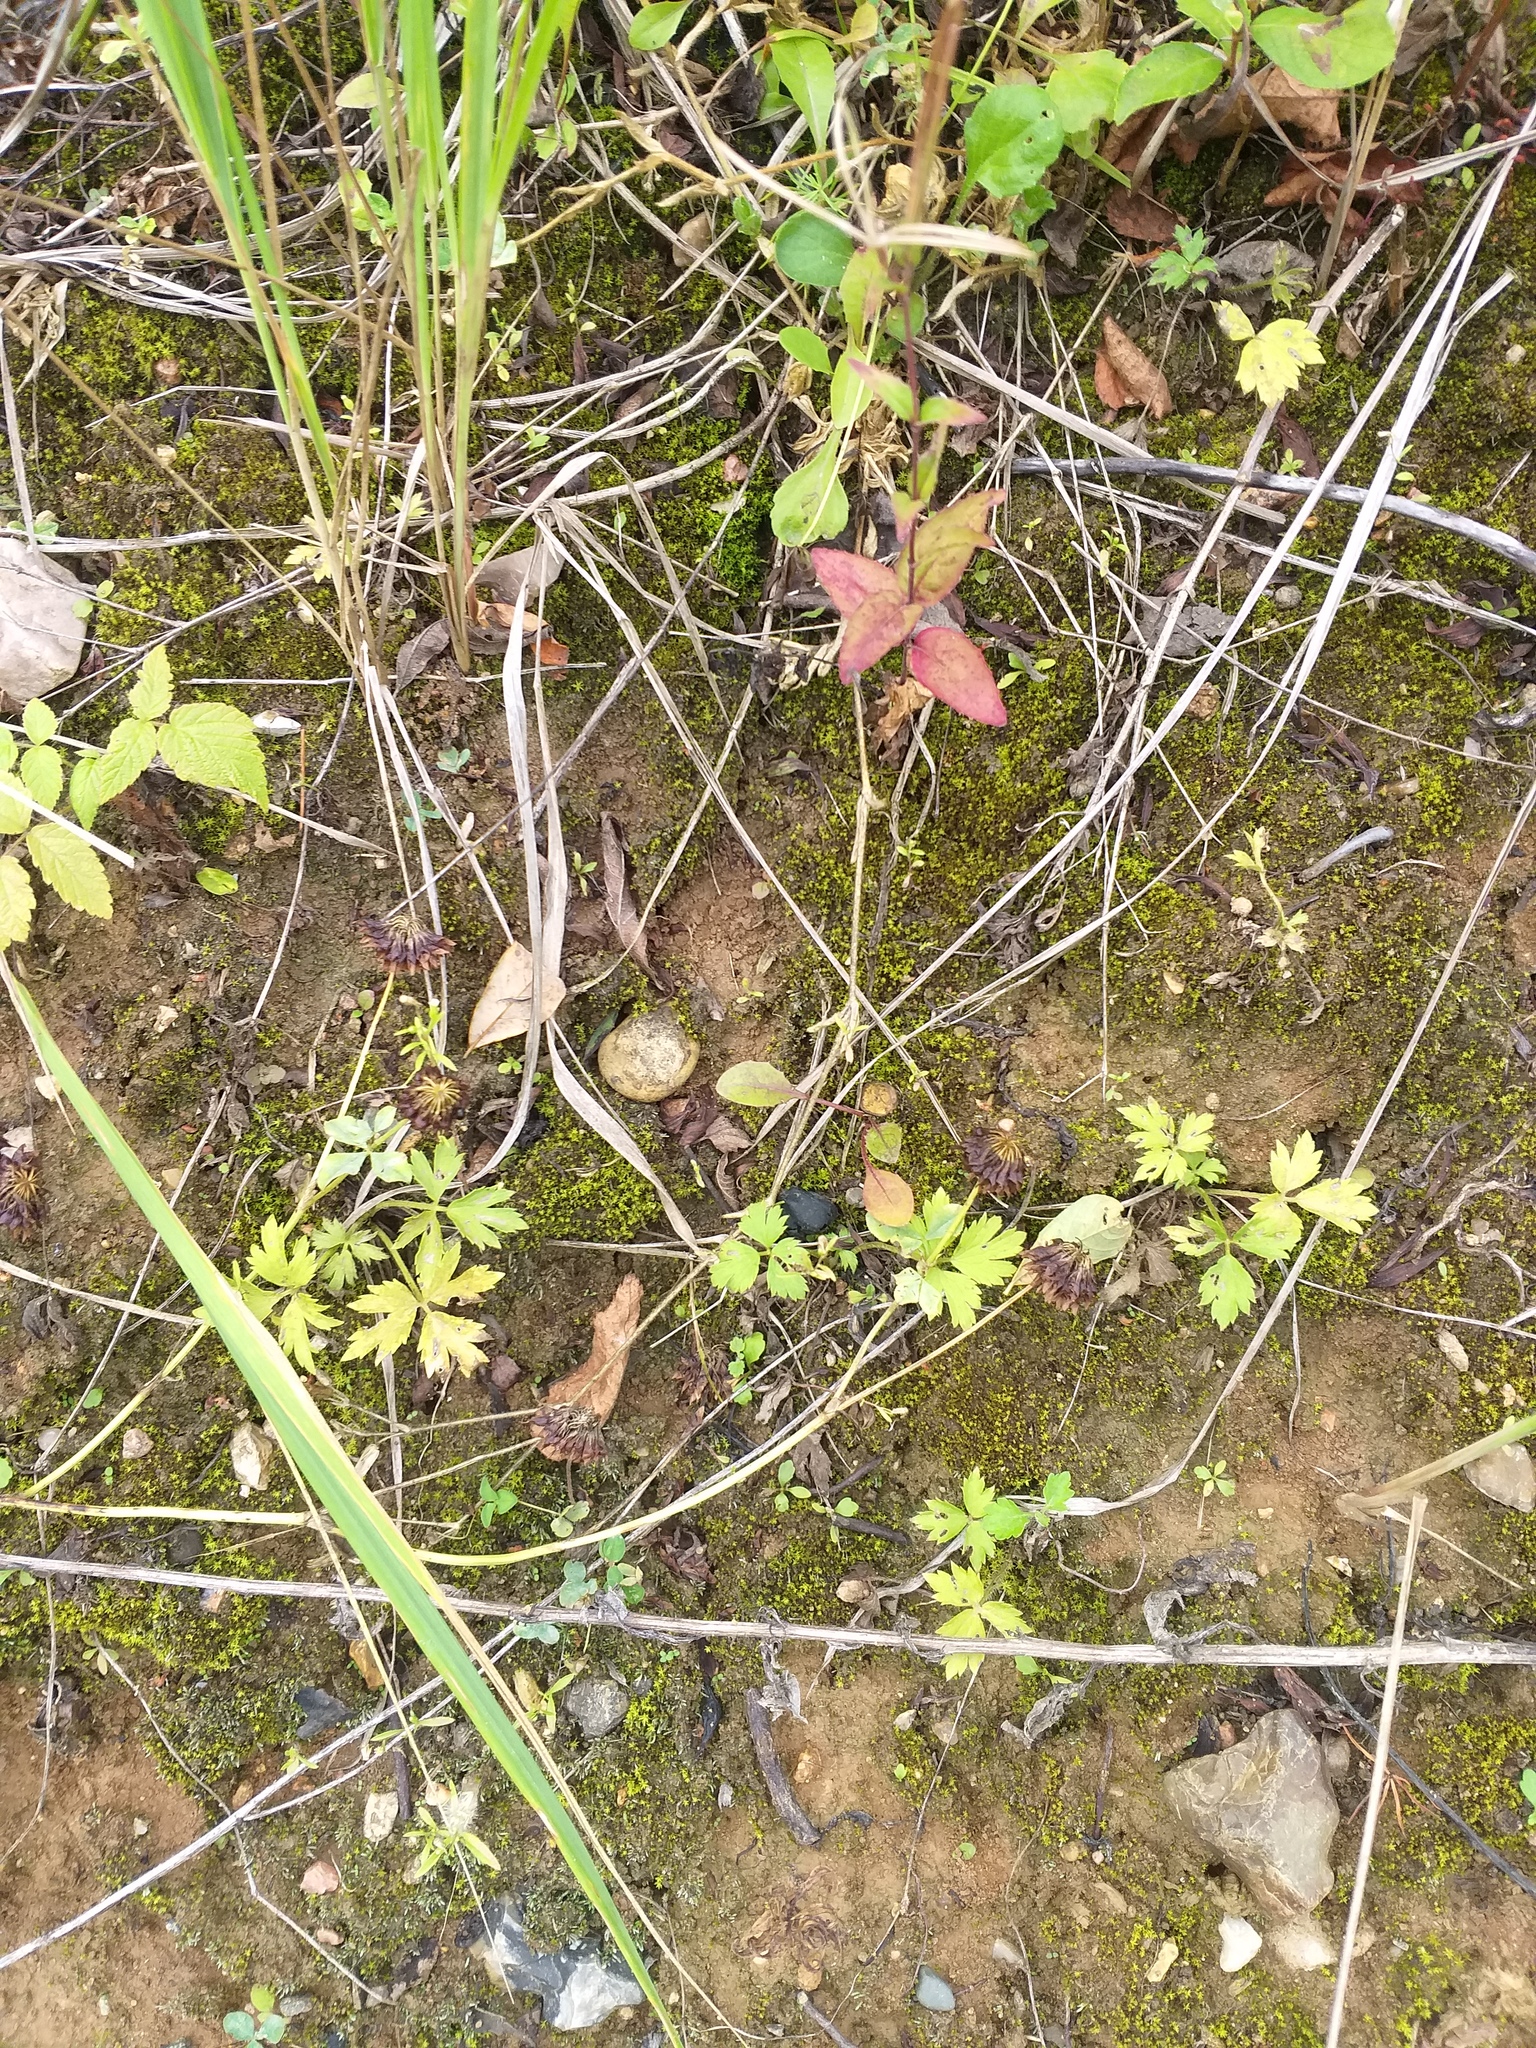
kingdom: Plantae
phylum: Tracheophyta
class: Magnoliopsida
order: Ranunculales
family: Ranunculaceae
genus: Ranunculus
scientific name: Ranunculus repens
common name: Creeping buttercup
